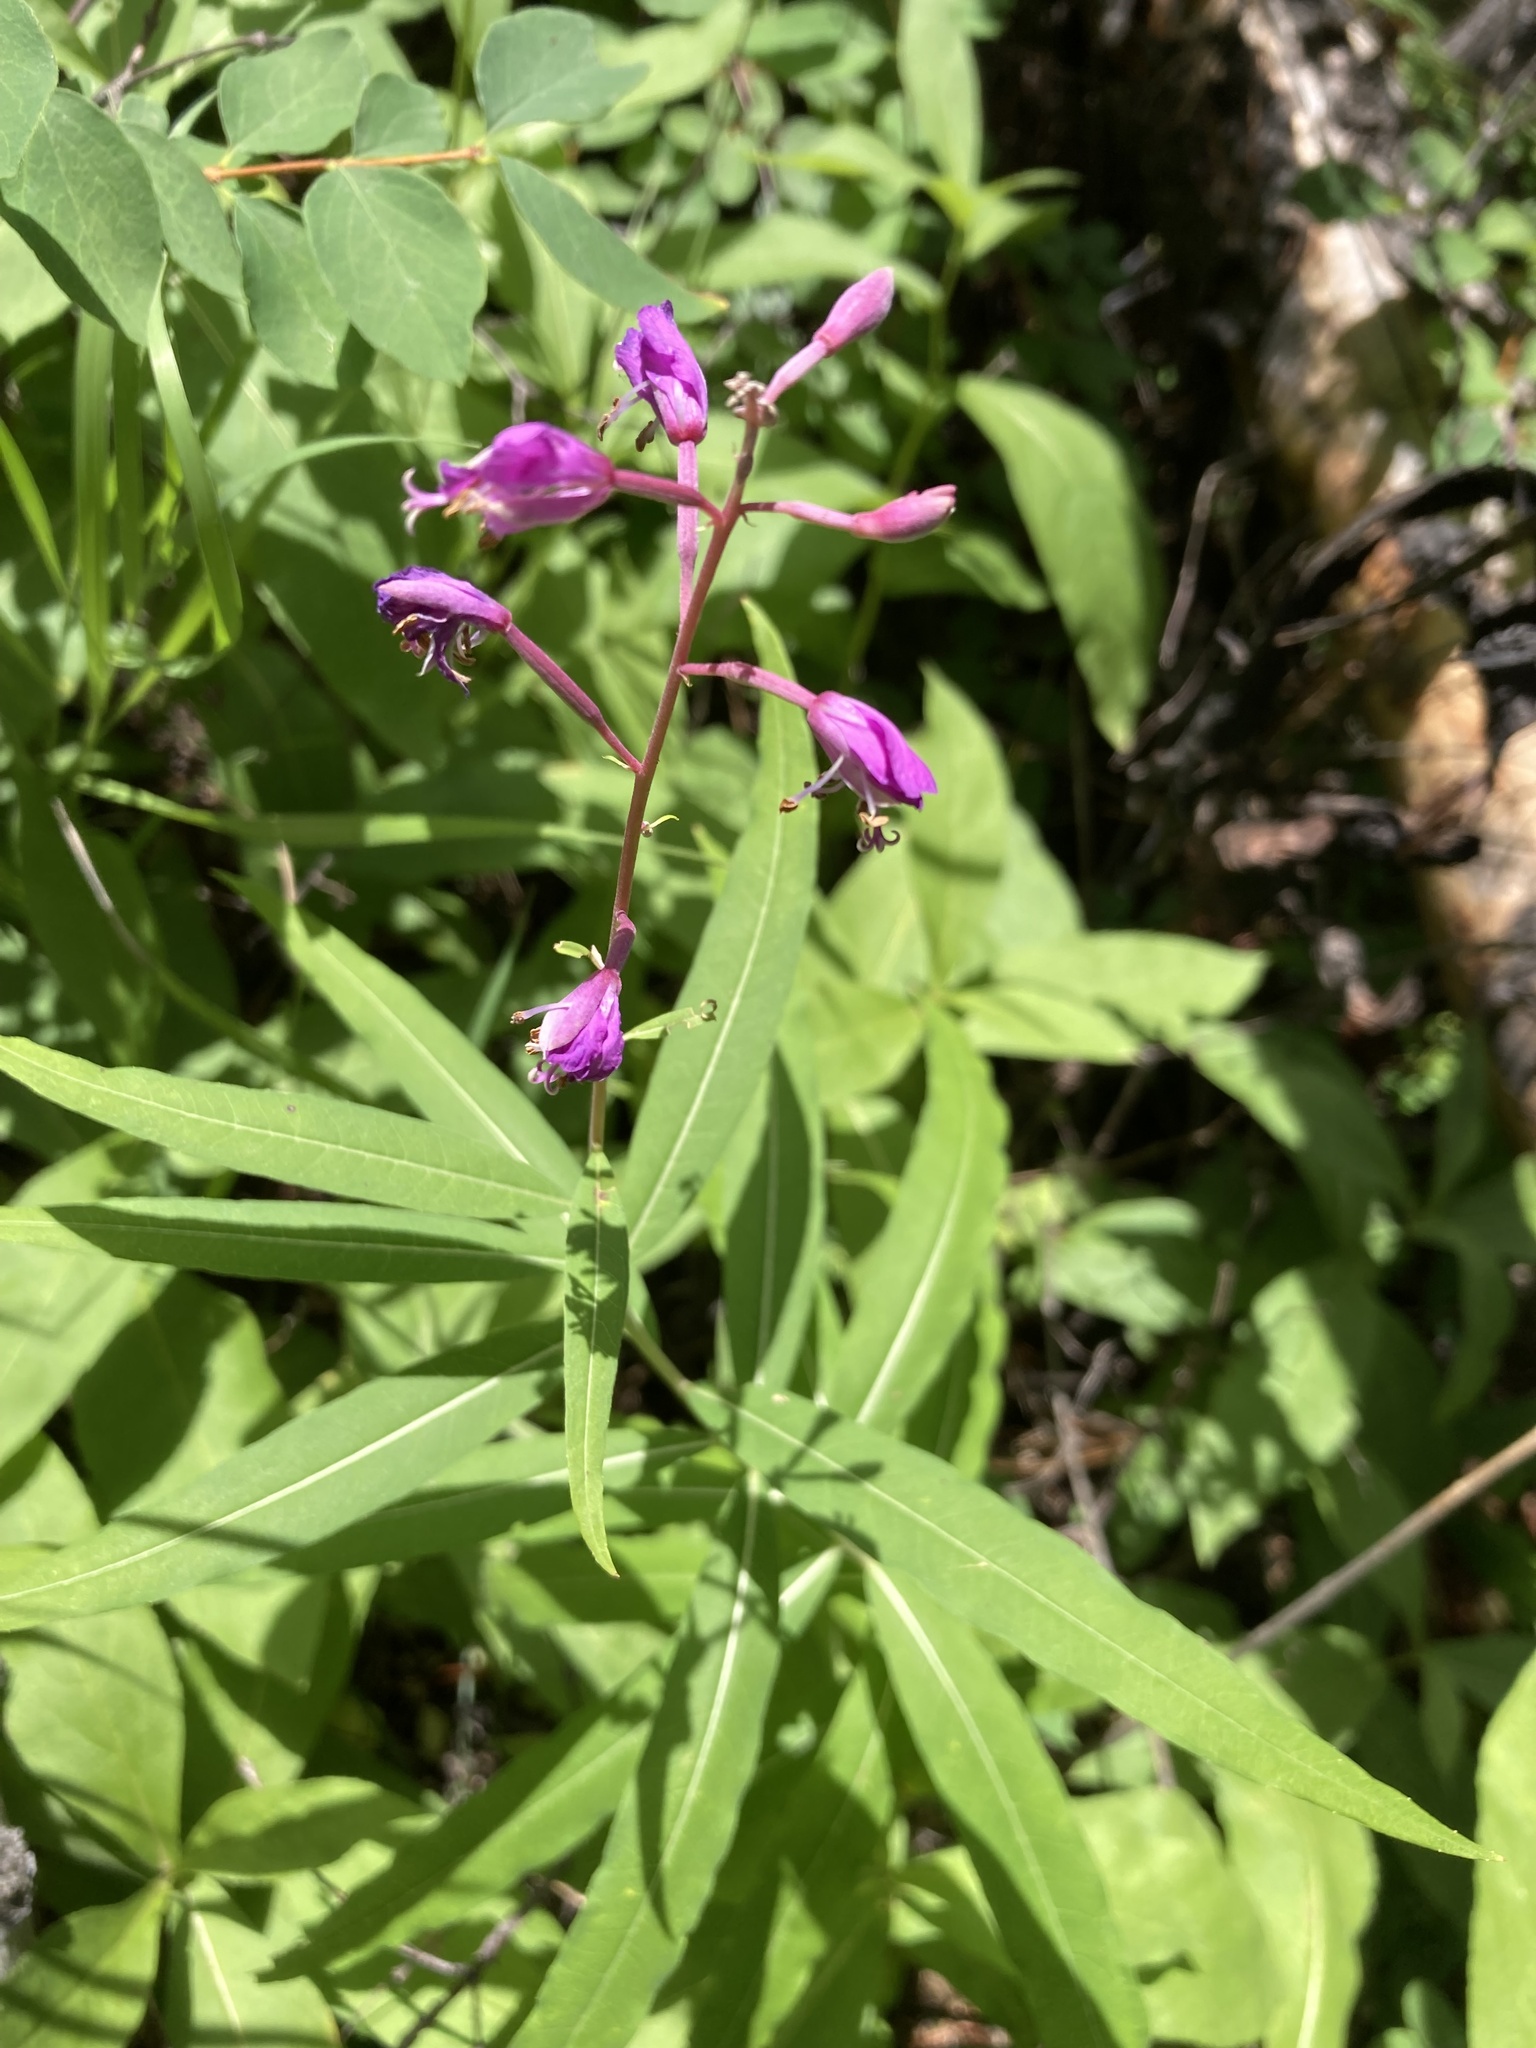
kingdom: Plantae
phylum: Tracheophyta
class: Magnoliopsida
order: Myrtales
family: Onagraceae
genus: Chamaenerion
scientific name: Chamaenerion angustifolium
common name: Fireweed
